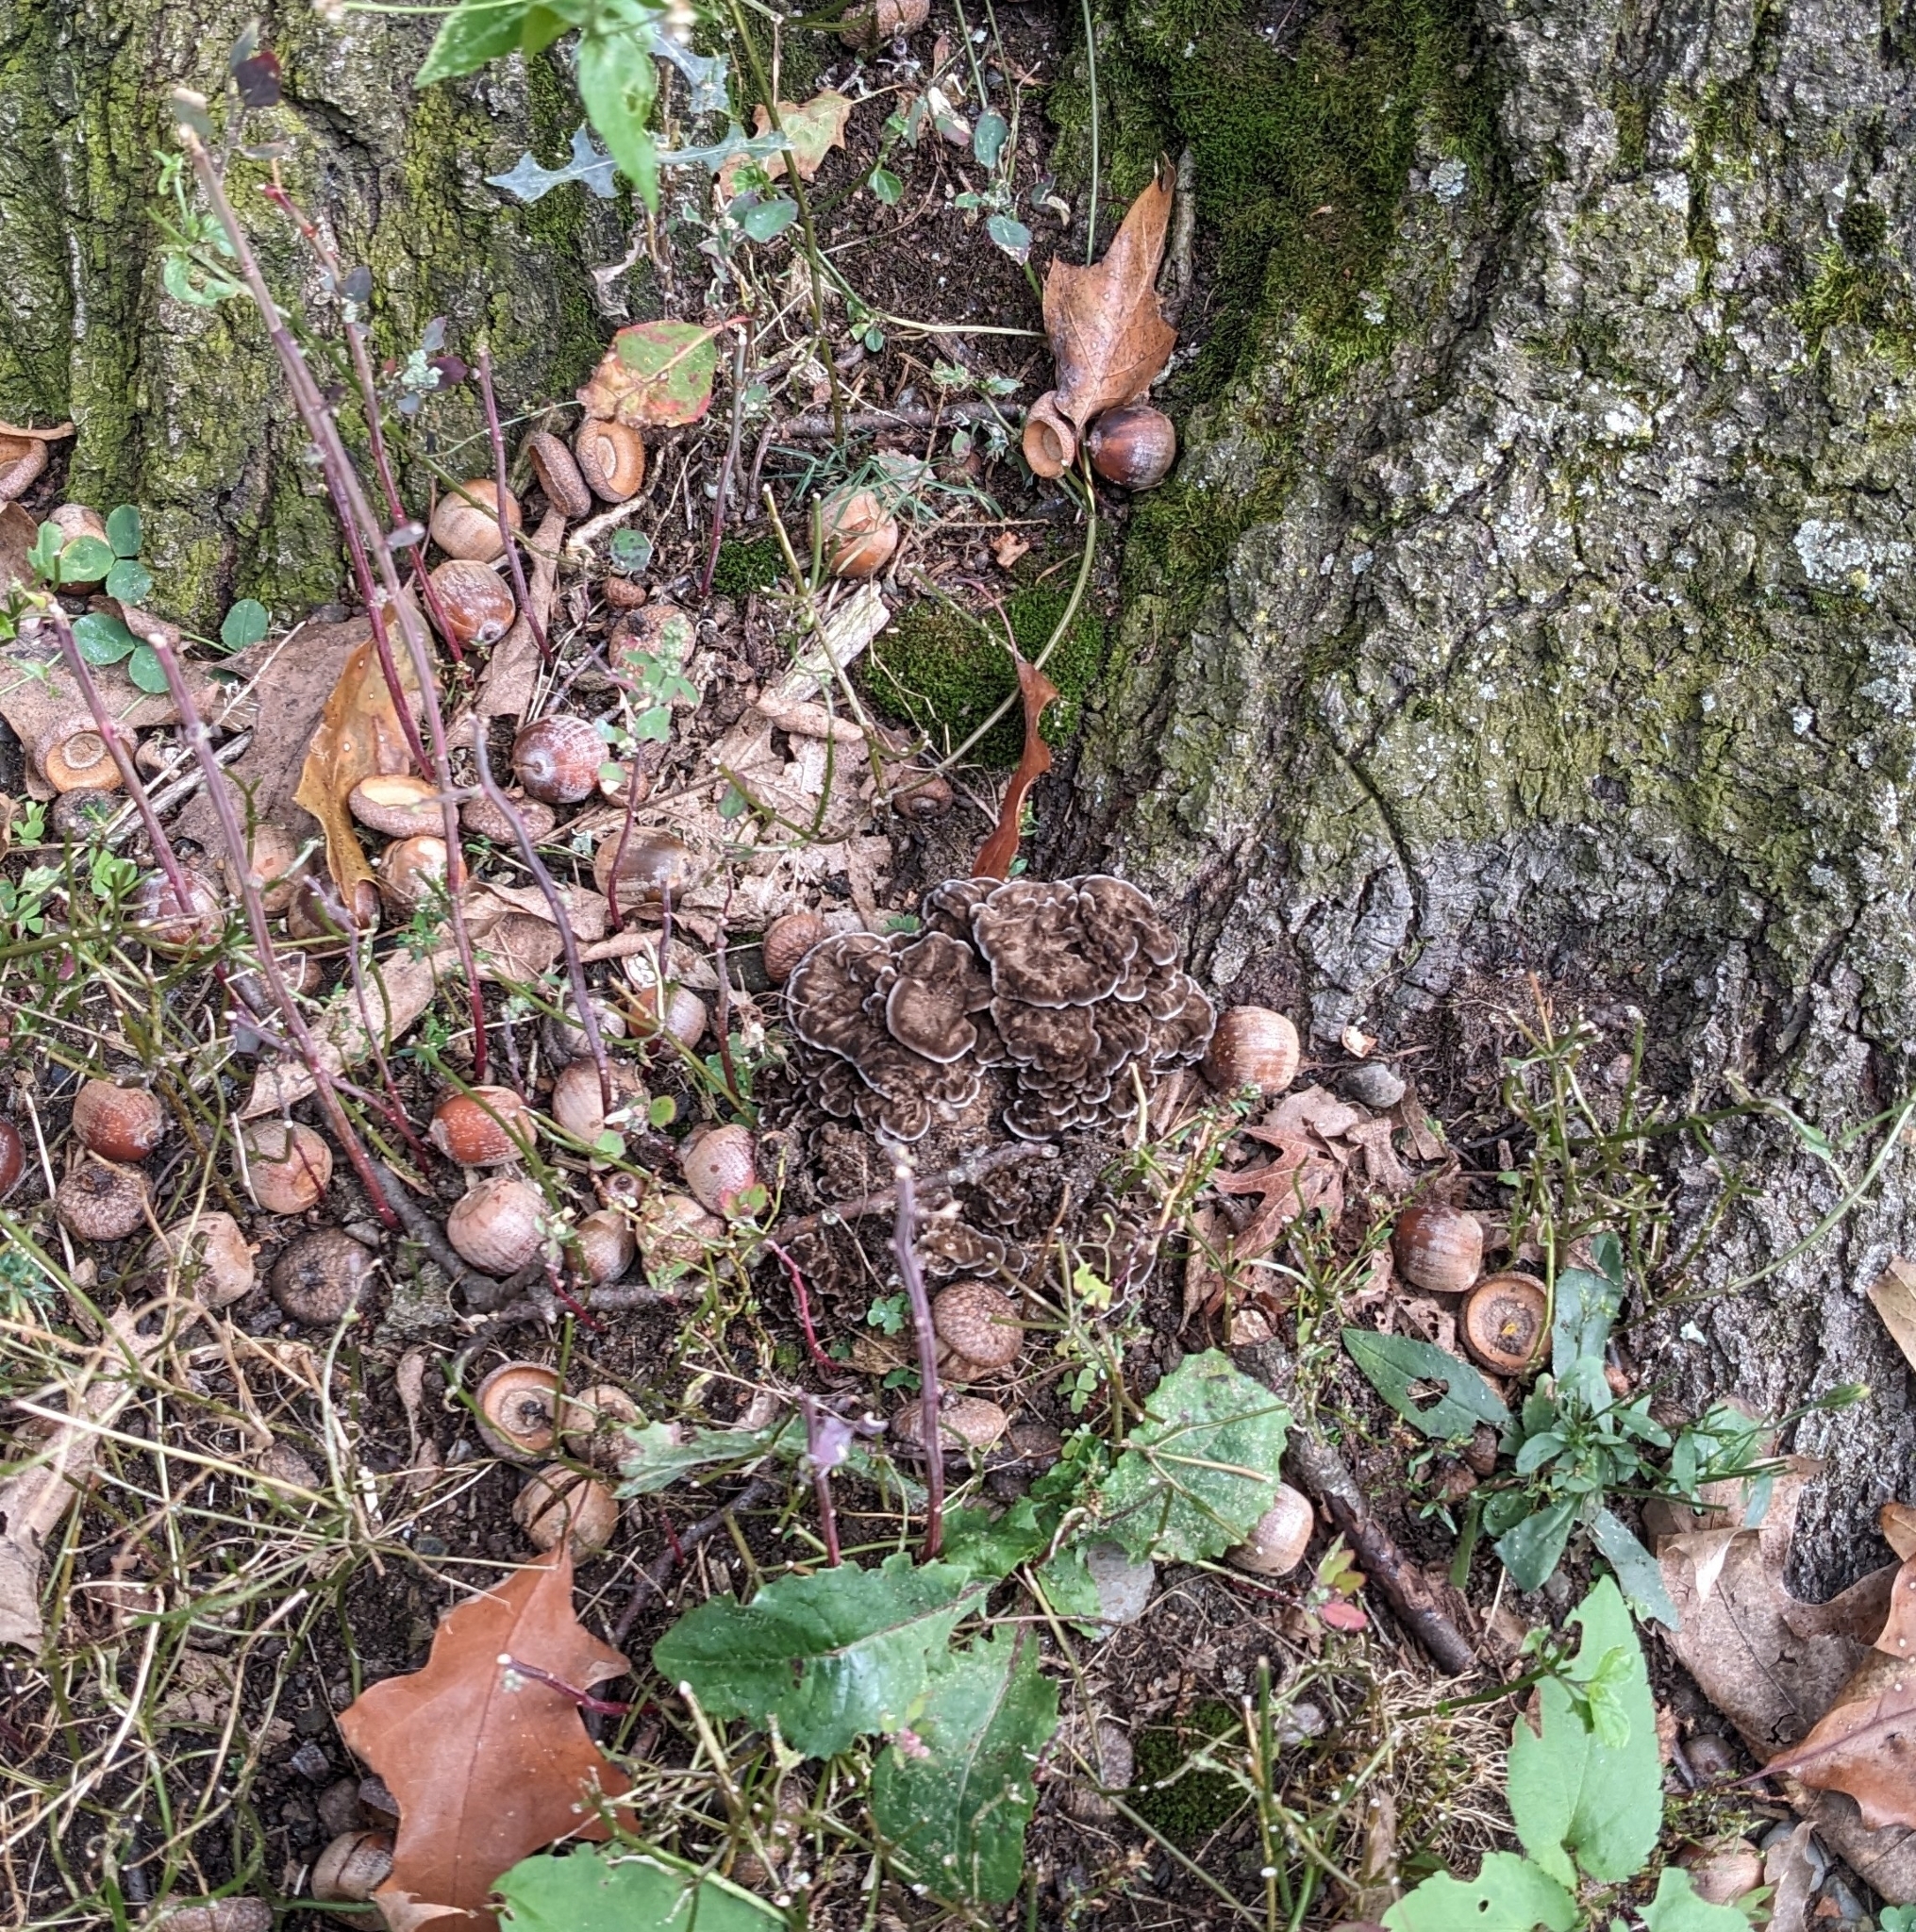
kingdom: Fungi
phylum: Basidiomycota
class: Agaricomycetes
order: Polyporales
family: Grifolaceae
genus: Grifola
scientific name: Grifola frondosa
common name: Hen of the woods
